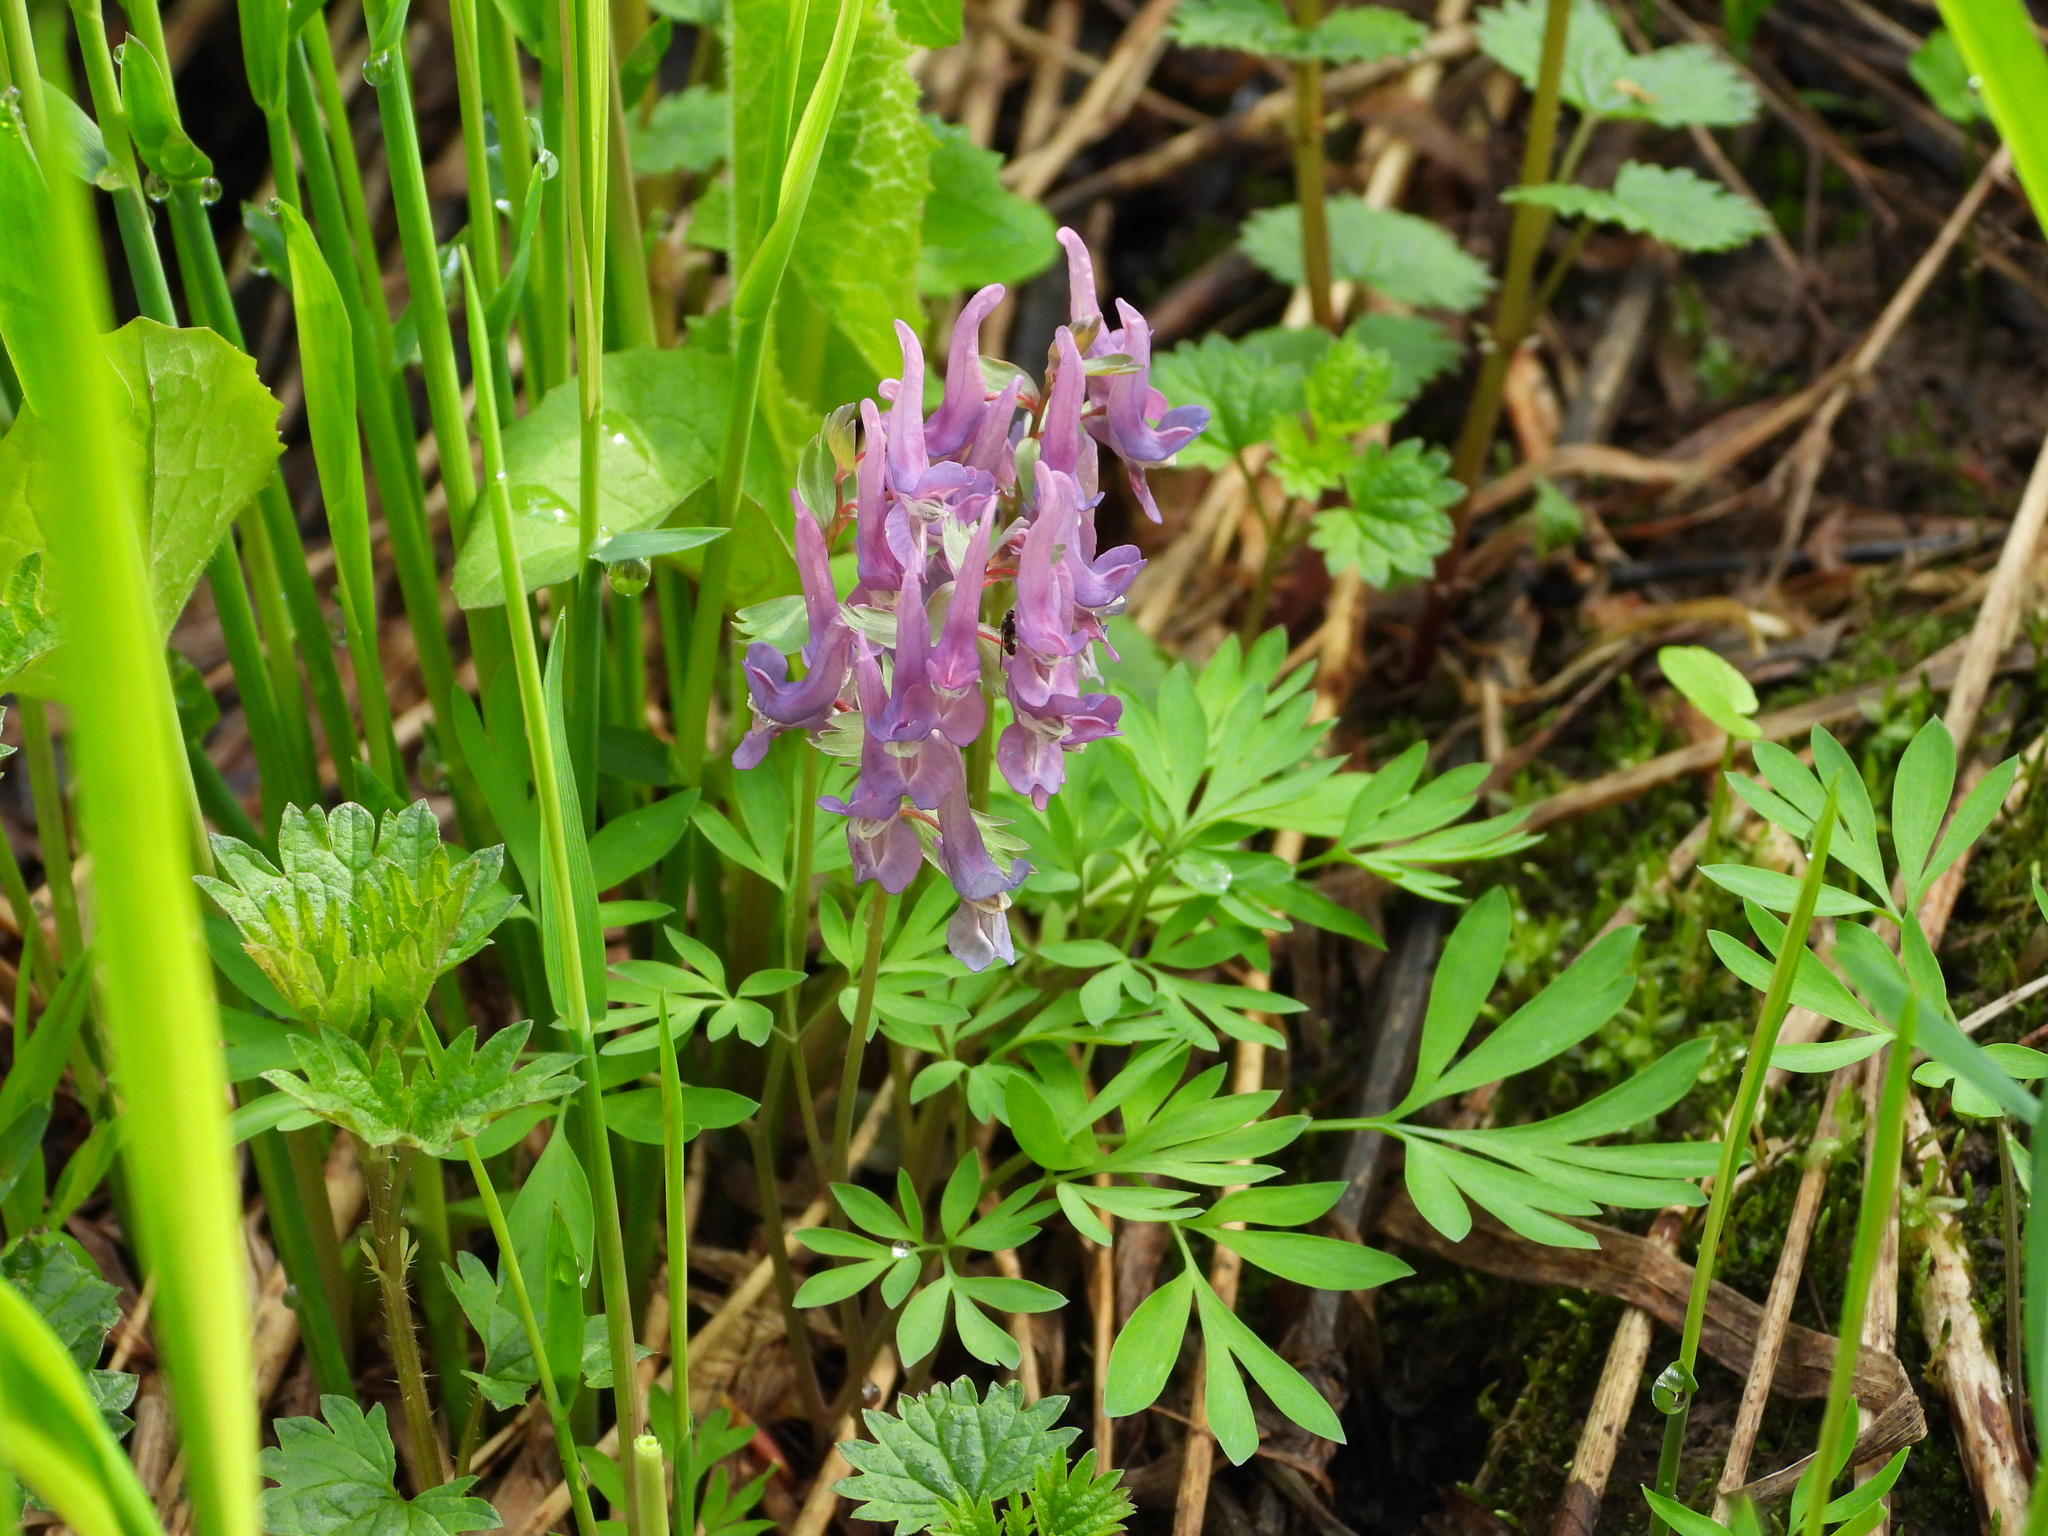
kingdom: Plantae
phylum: Tracheophyta
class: Magnoliopsida
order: Ranunculales
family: Papaveraceae
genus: Corydalis
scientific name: Corydalis solida
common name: Bird-in-a-bush
